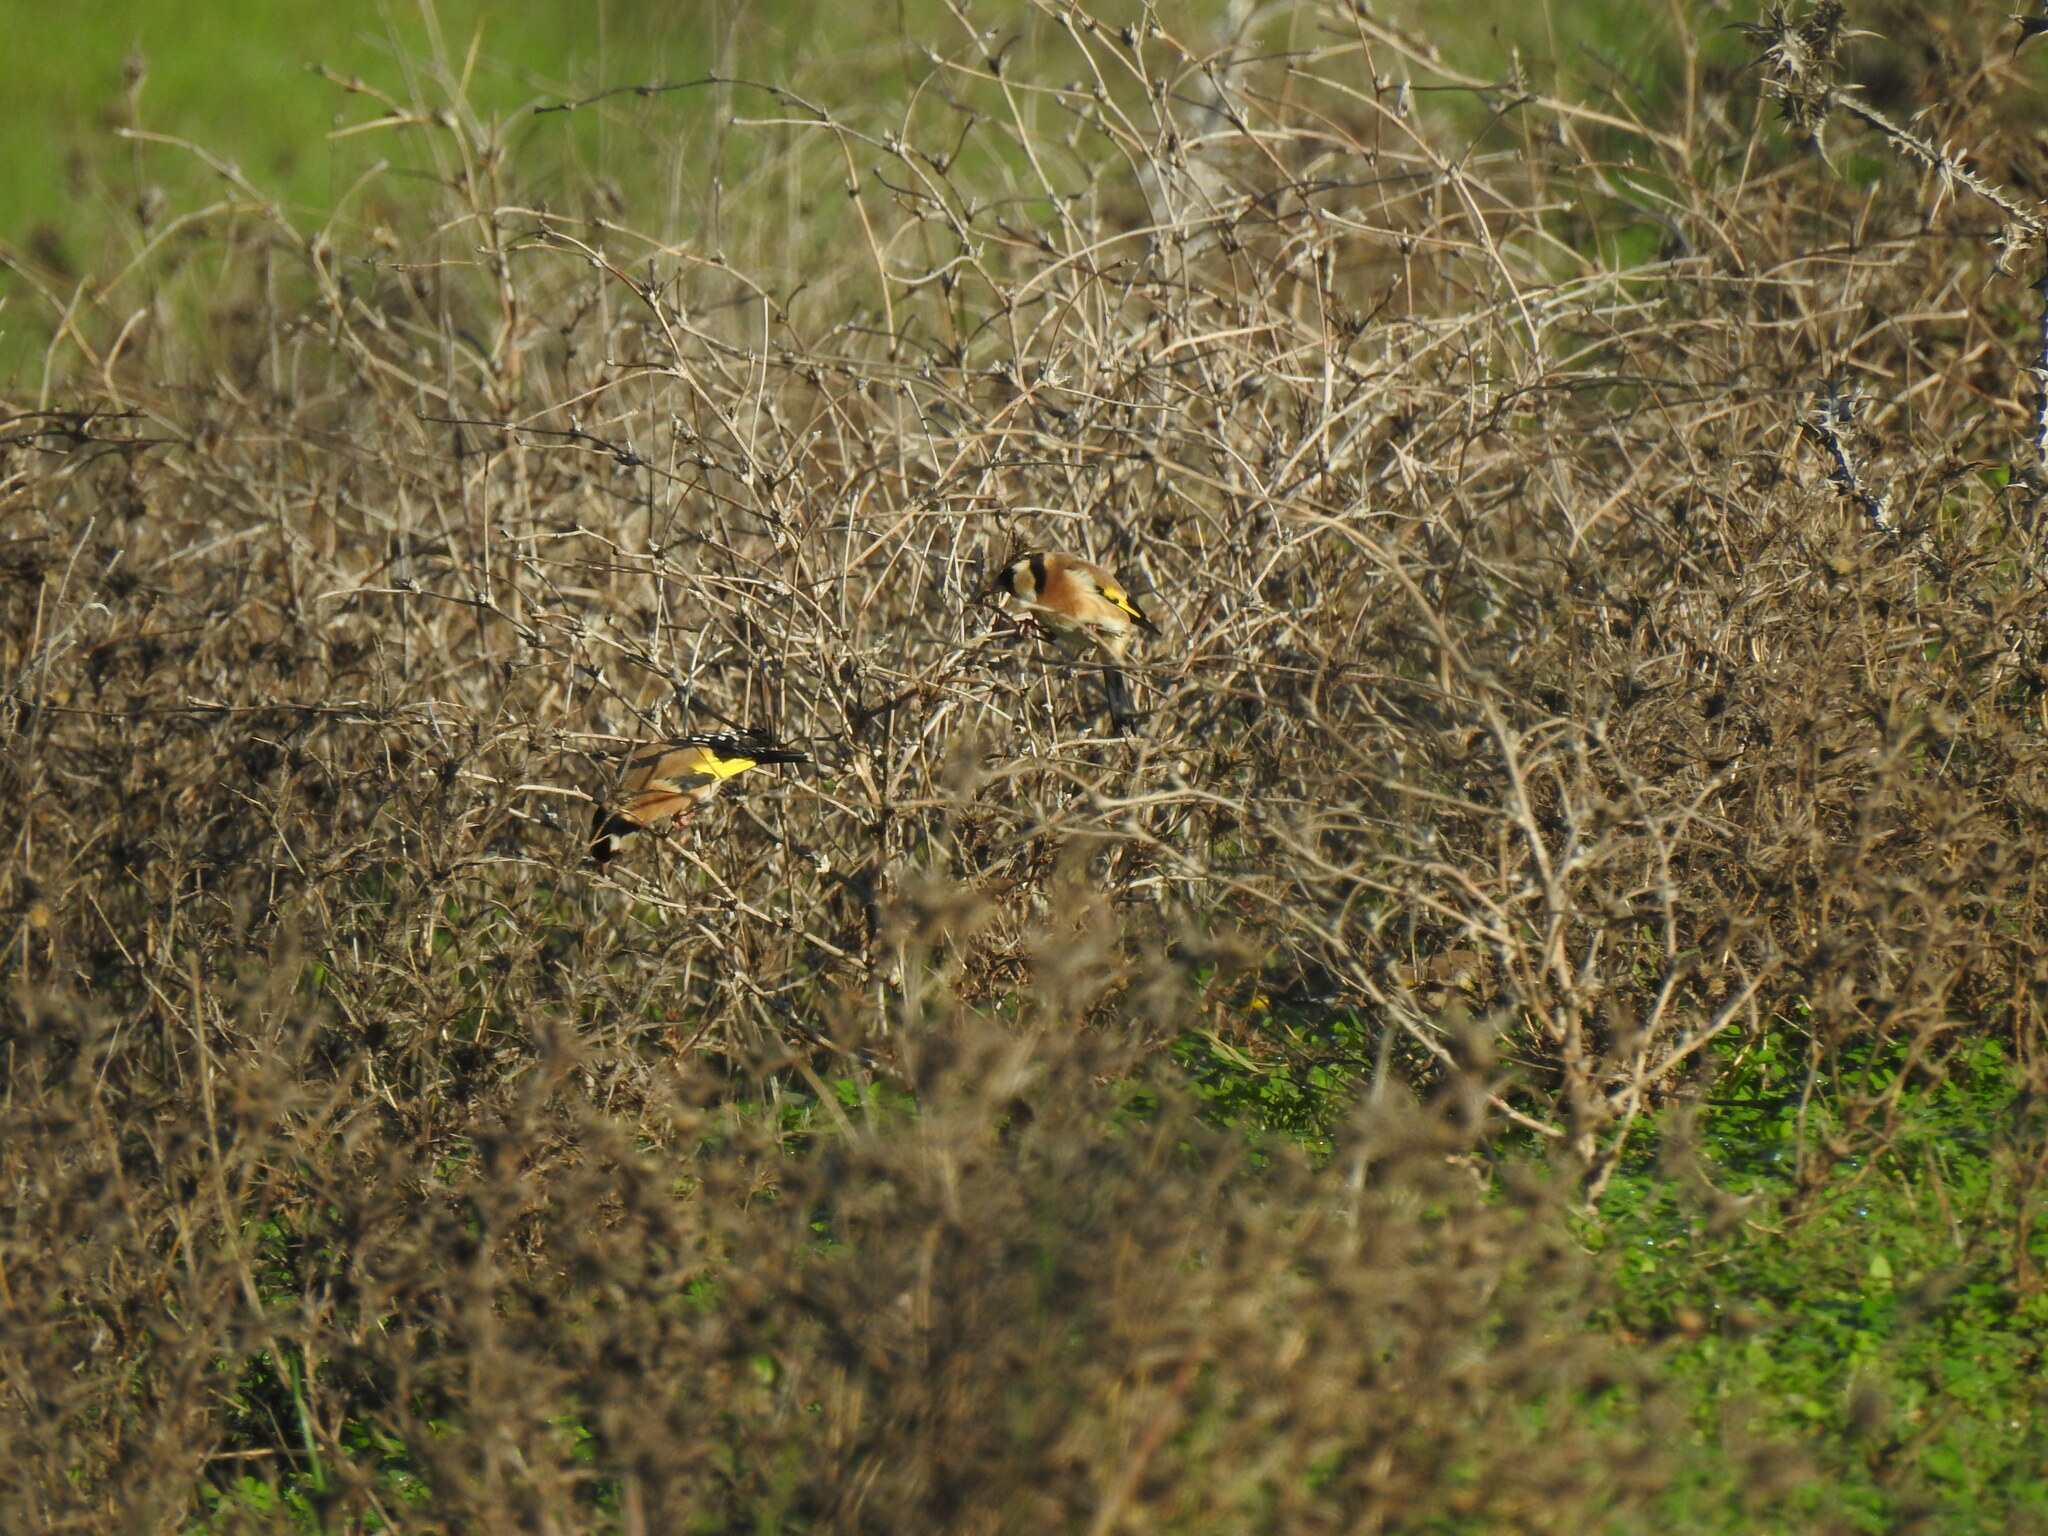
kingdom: Animalia
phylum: Chordata
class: Aves
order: Passeriformes
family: Fringillidae
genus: Carduelis
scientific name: Carduelis carduelis
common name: European goldfinch
